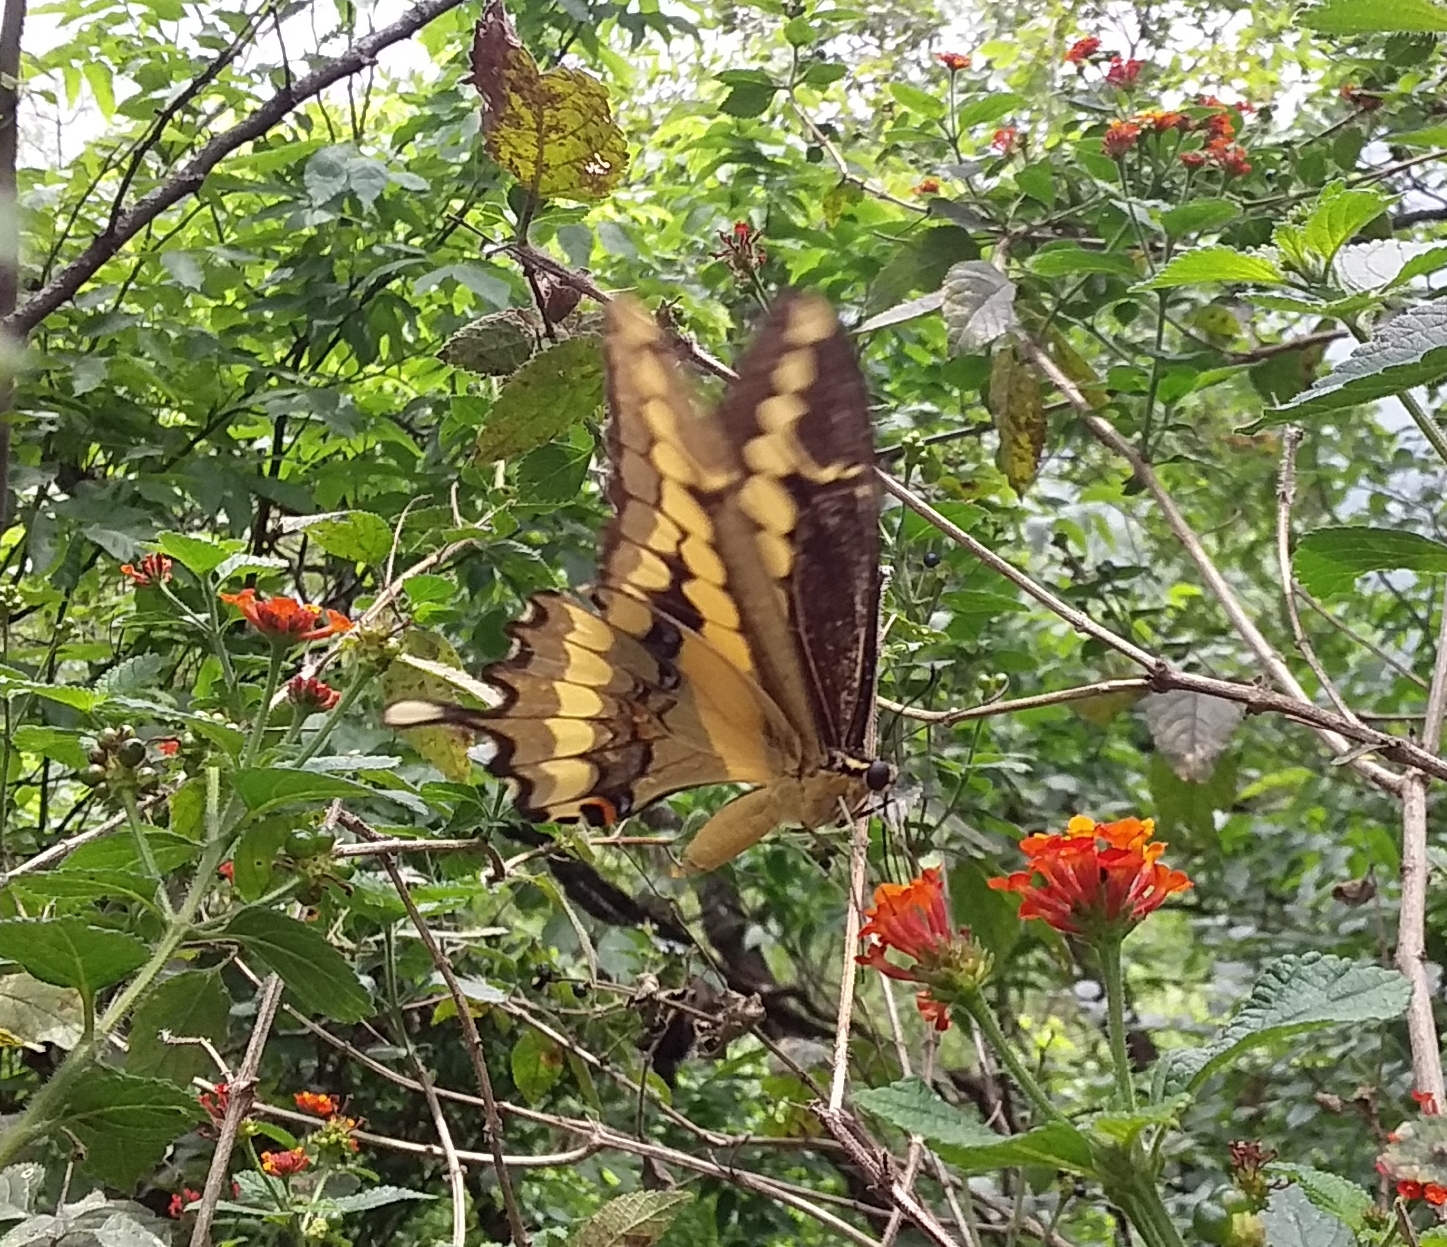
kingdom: Animalia
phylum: Arthropoda
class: Insecta
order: Lepidoptera
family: Papilionidae
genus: Papilio
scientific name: Papilio rumiko
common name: Western giant swallowtail
